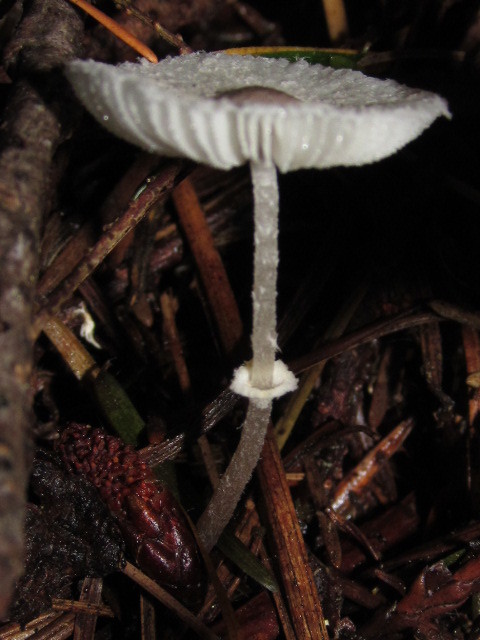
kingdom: Fungi
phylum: Basidiomycota
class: Agaricomycetes
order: Agaricales
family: Agaricaceae
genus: Leucocoprinus
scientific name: Leucocoprinus brebissonii
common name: Skullcap dapperling
